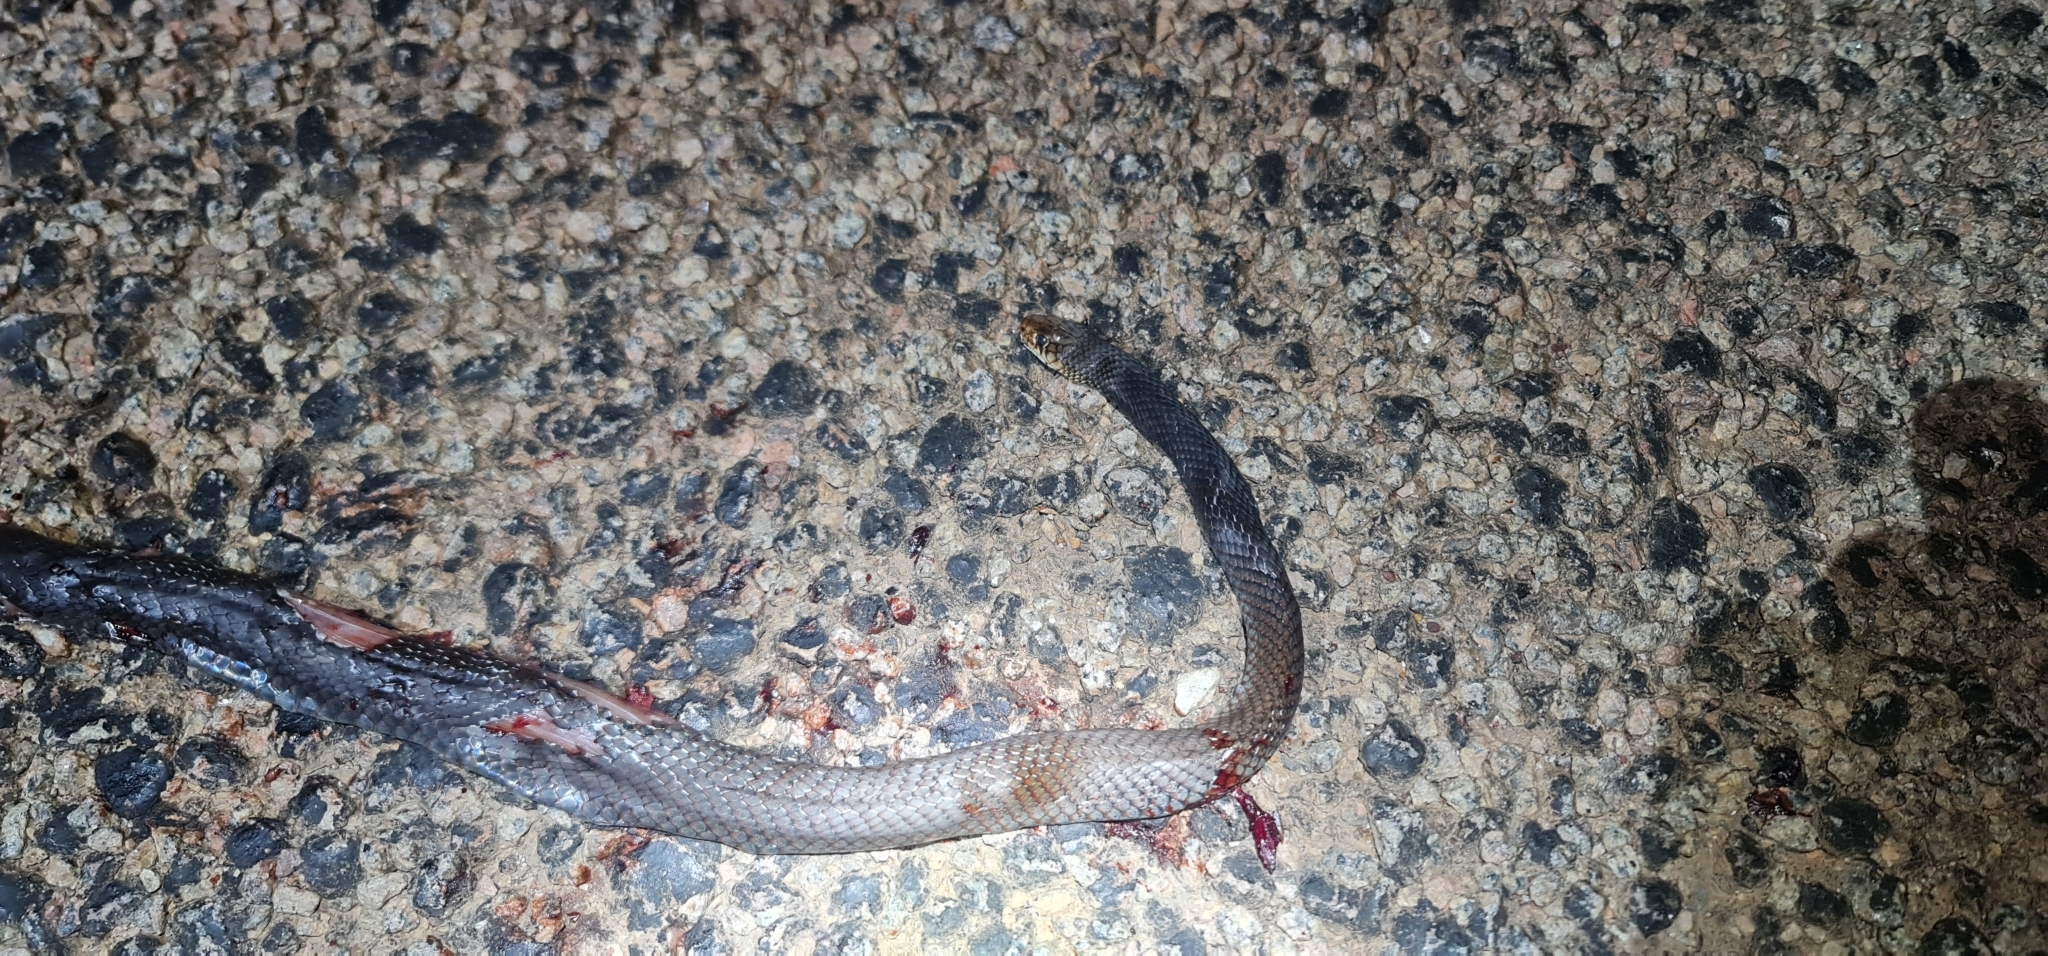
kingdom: Animalia
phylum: Chordata
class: Squamata
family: Elapidae
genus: Demansia
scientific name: Demansia vestigiata
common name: Black whip snake
